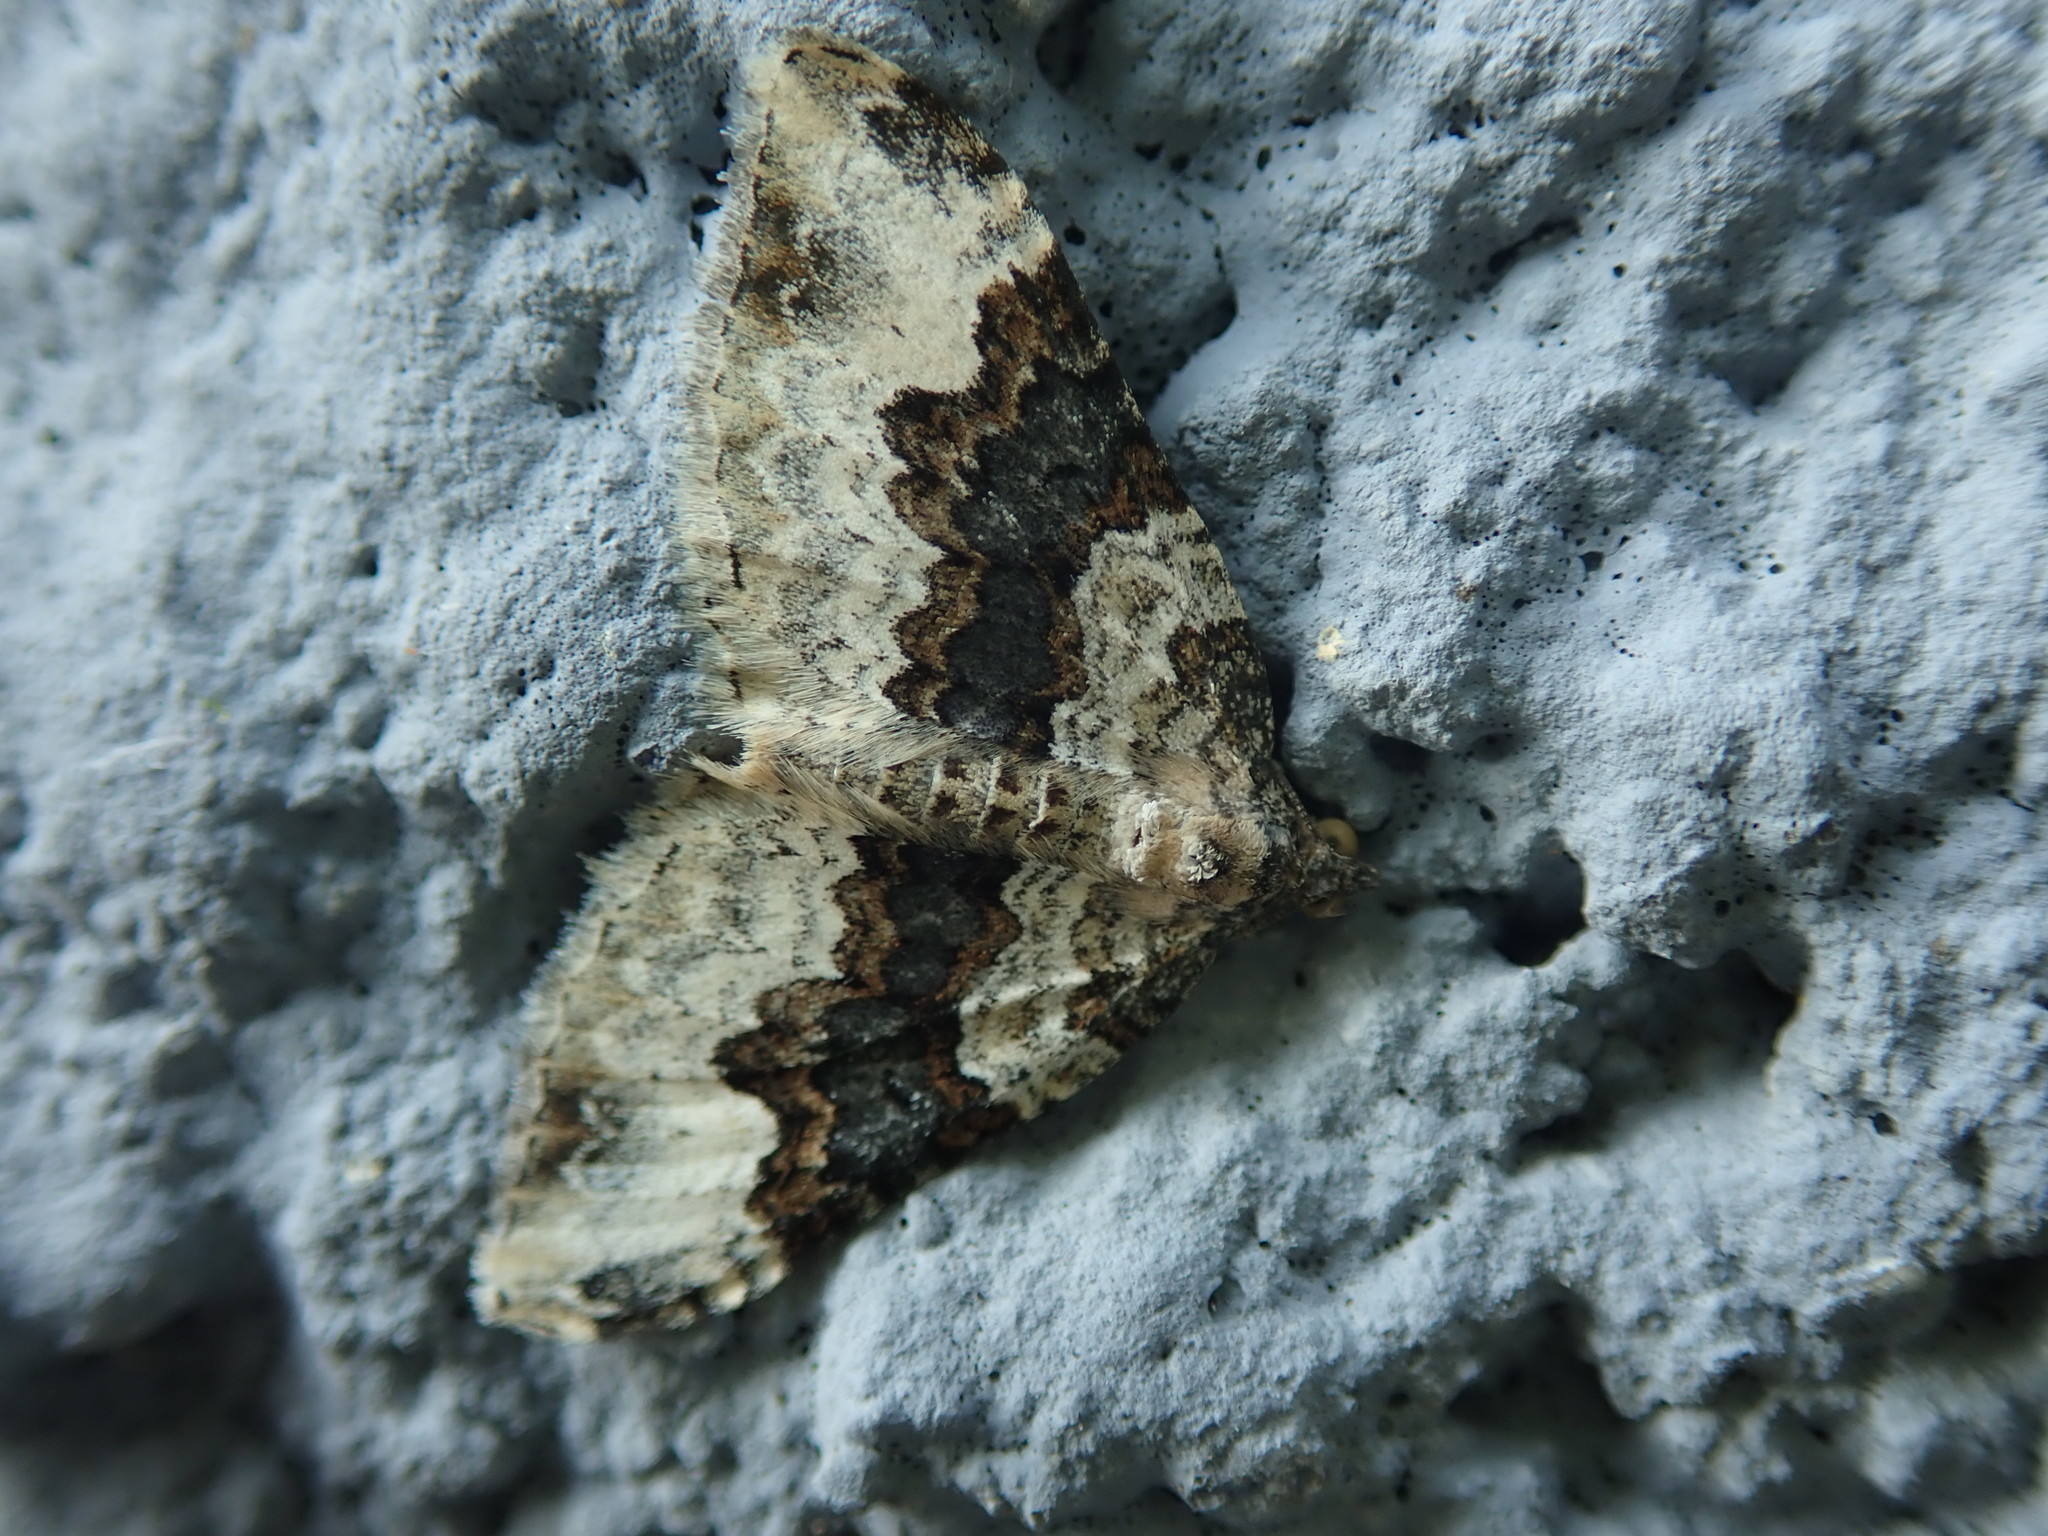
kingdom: Animalia
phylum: Arthropoda
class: Insecta
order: Lepidoptera
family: Geometridae
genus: Epirrhoe
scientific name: Epirrhoe galiata
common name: Galium carpet
